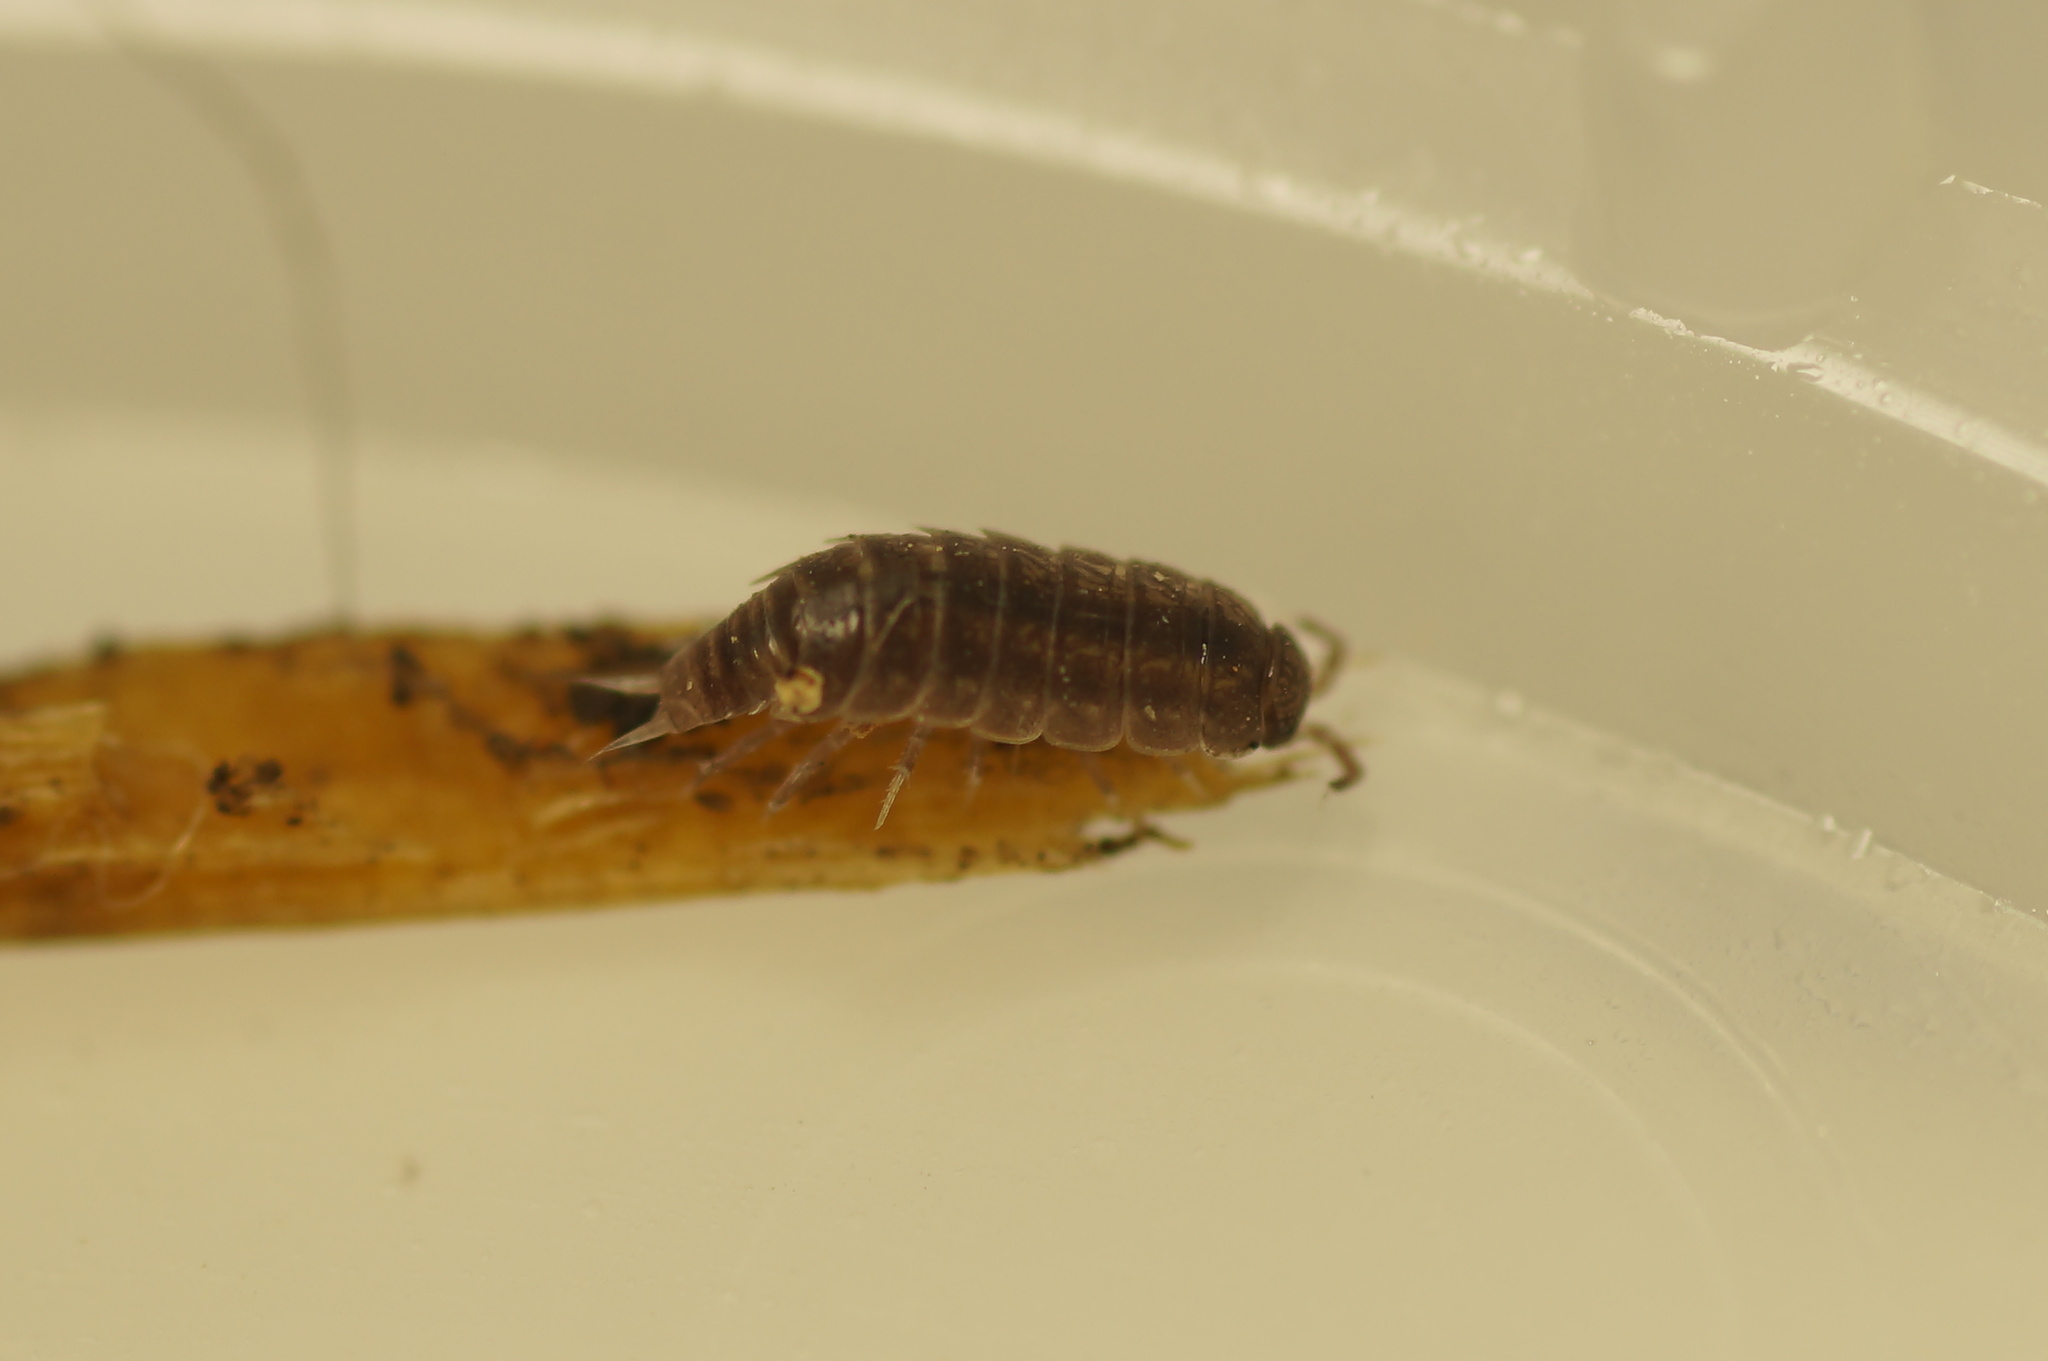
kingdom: Animalia
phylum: Arthropoda
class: Malacostraca
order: Isopoda
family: Trichoniscidae
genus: Hyloniscus
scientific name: Hyloniscus riparius
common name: Isopod
